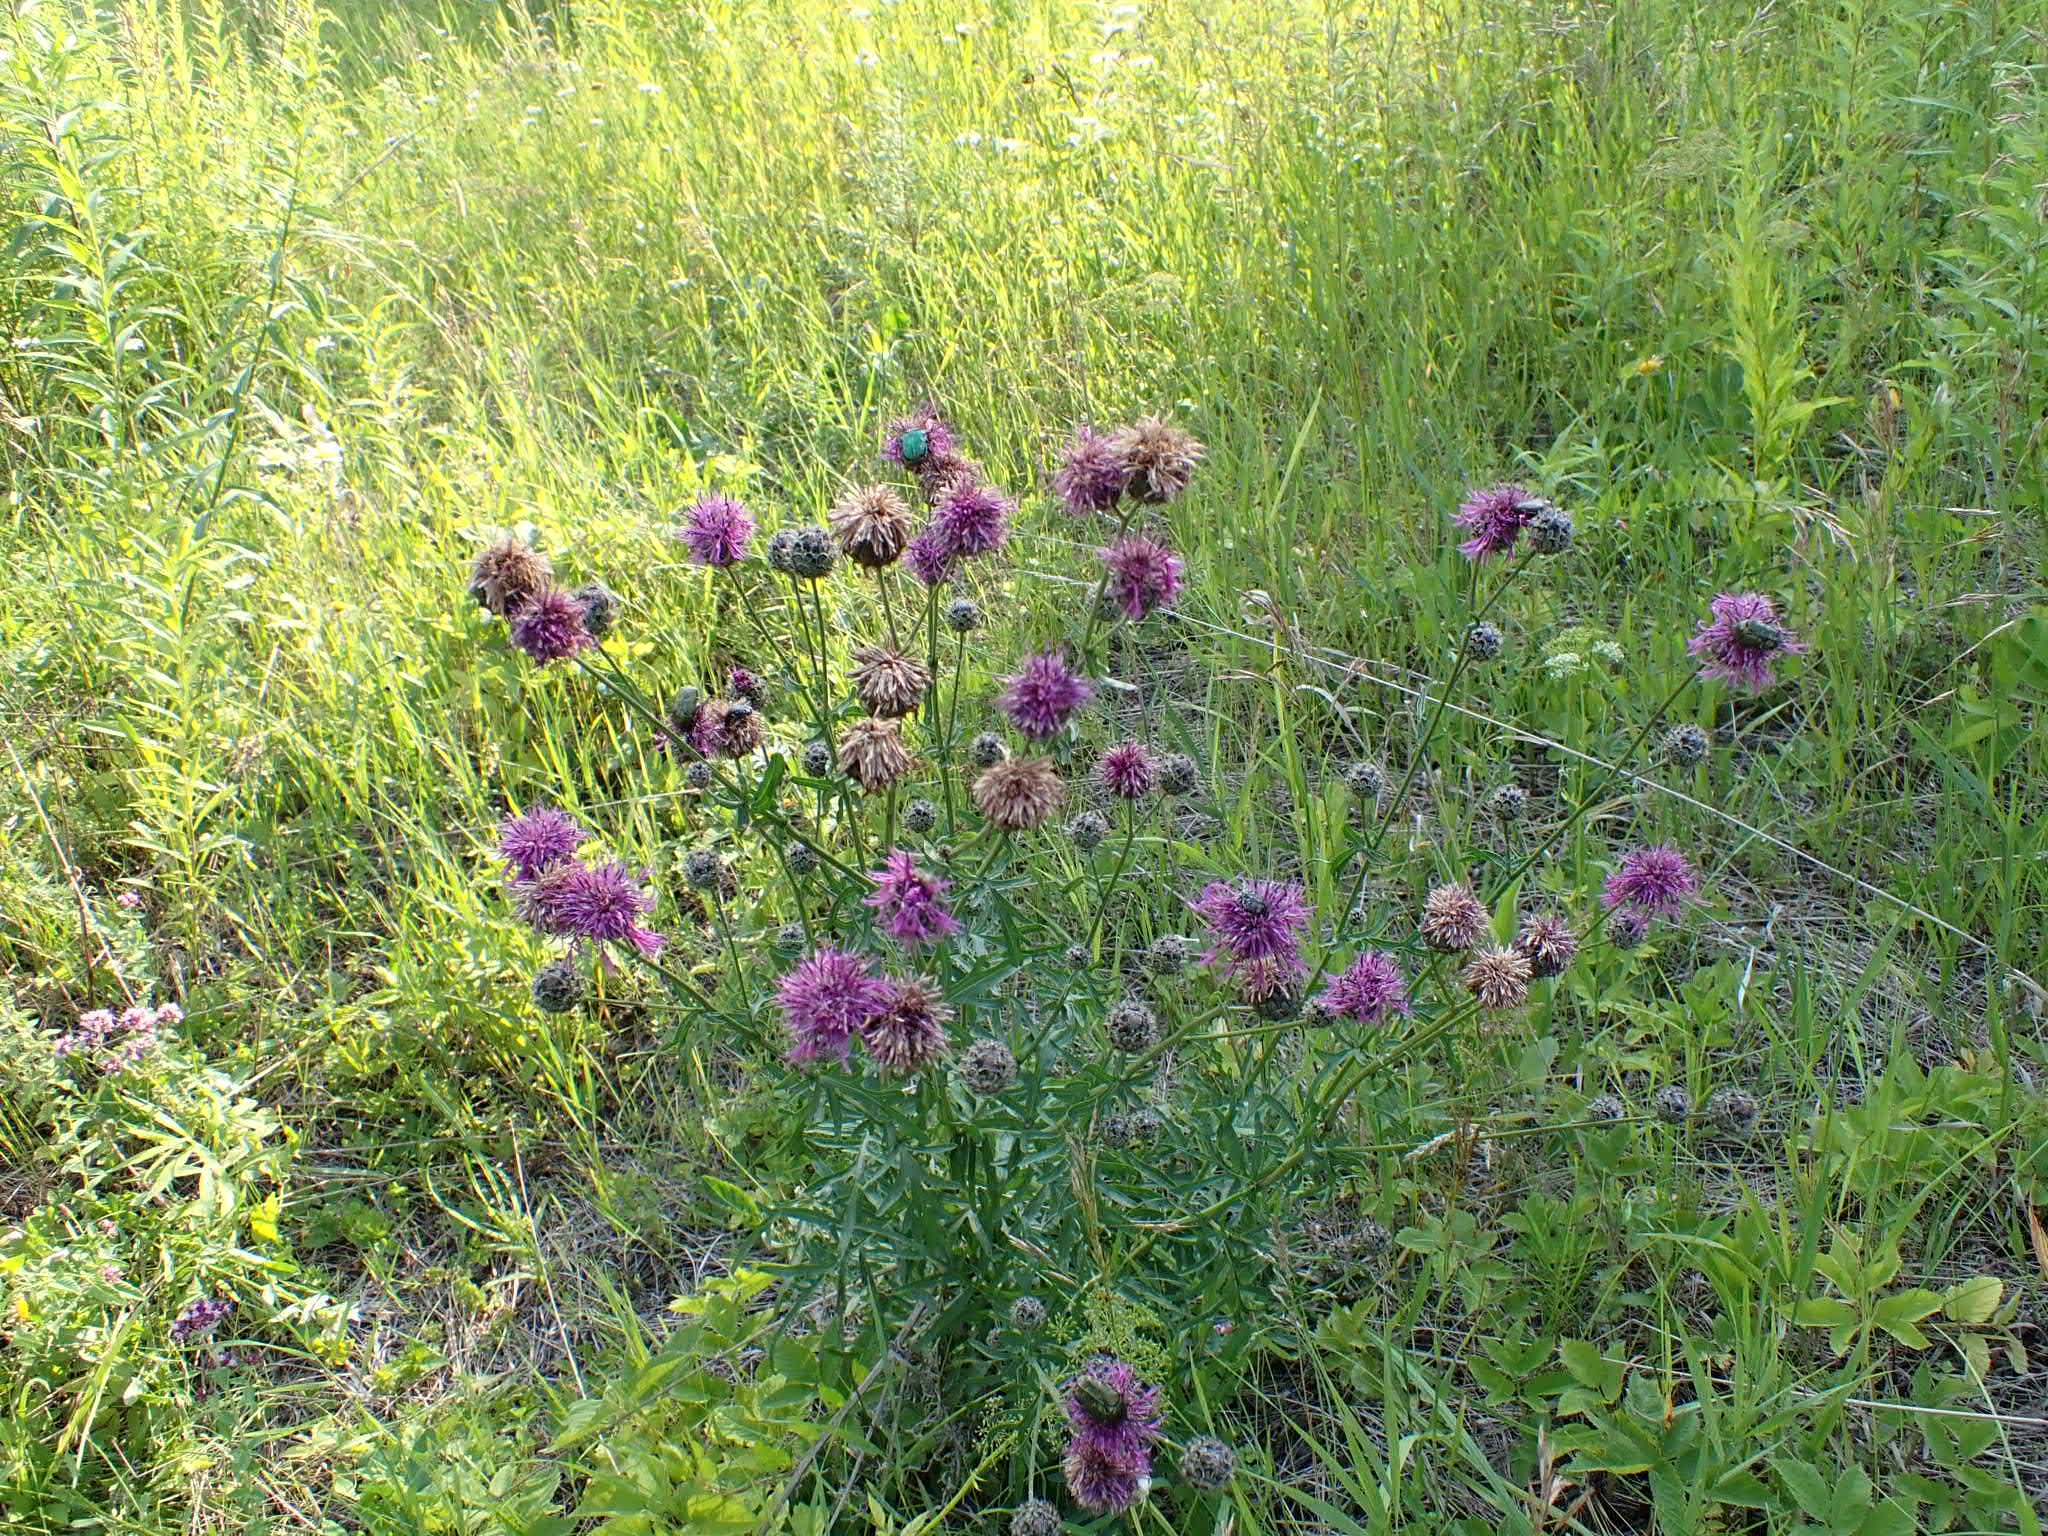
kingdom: Plantae
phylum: Tracheophyta
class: Magnoliopsida
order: Asterales
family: Asteraceae
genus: Centaurea
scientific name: Centaurea scabiosa
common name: Greater knapweed
